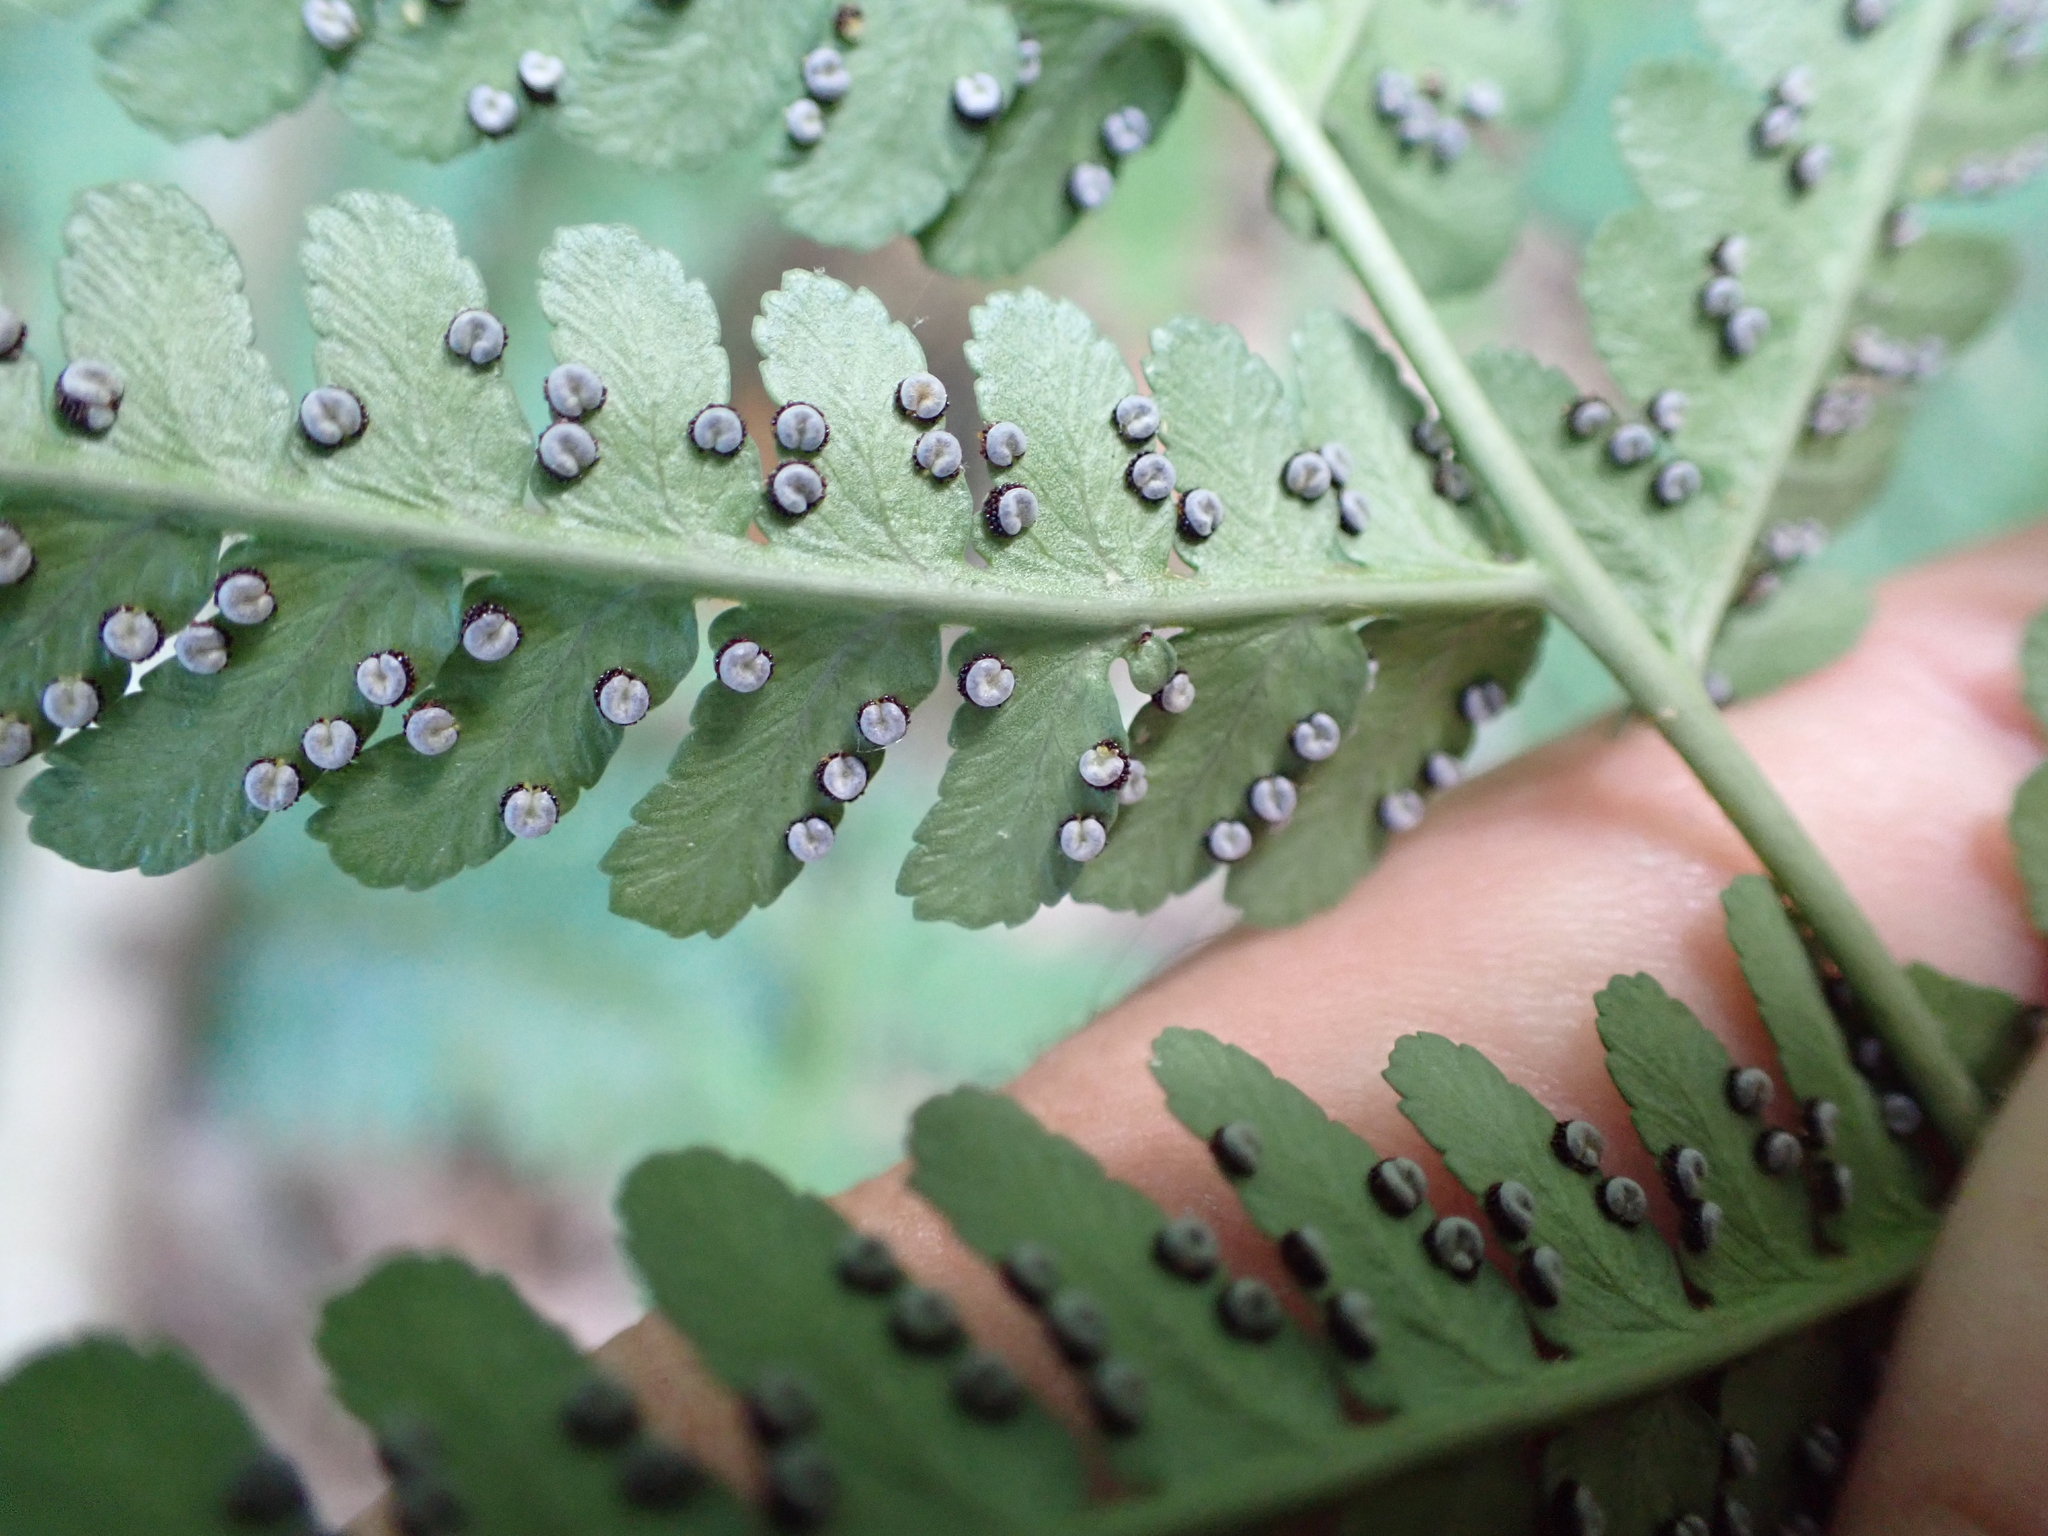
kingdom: Plantae
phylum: Tracheophyta
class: Polypodiopsida
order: Polypodiales
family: Dryopteridaceae
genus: Dryopteris
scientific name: Dryopteris marginalis
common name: Marginal wood fern
